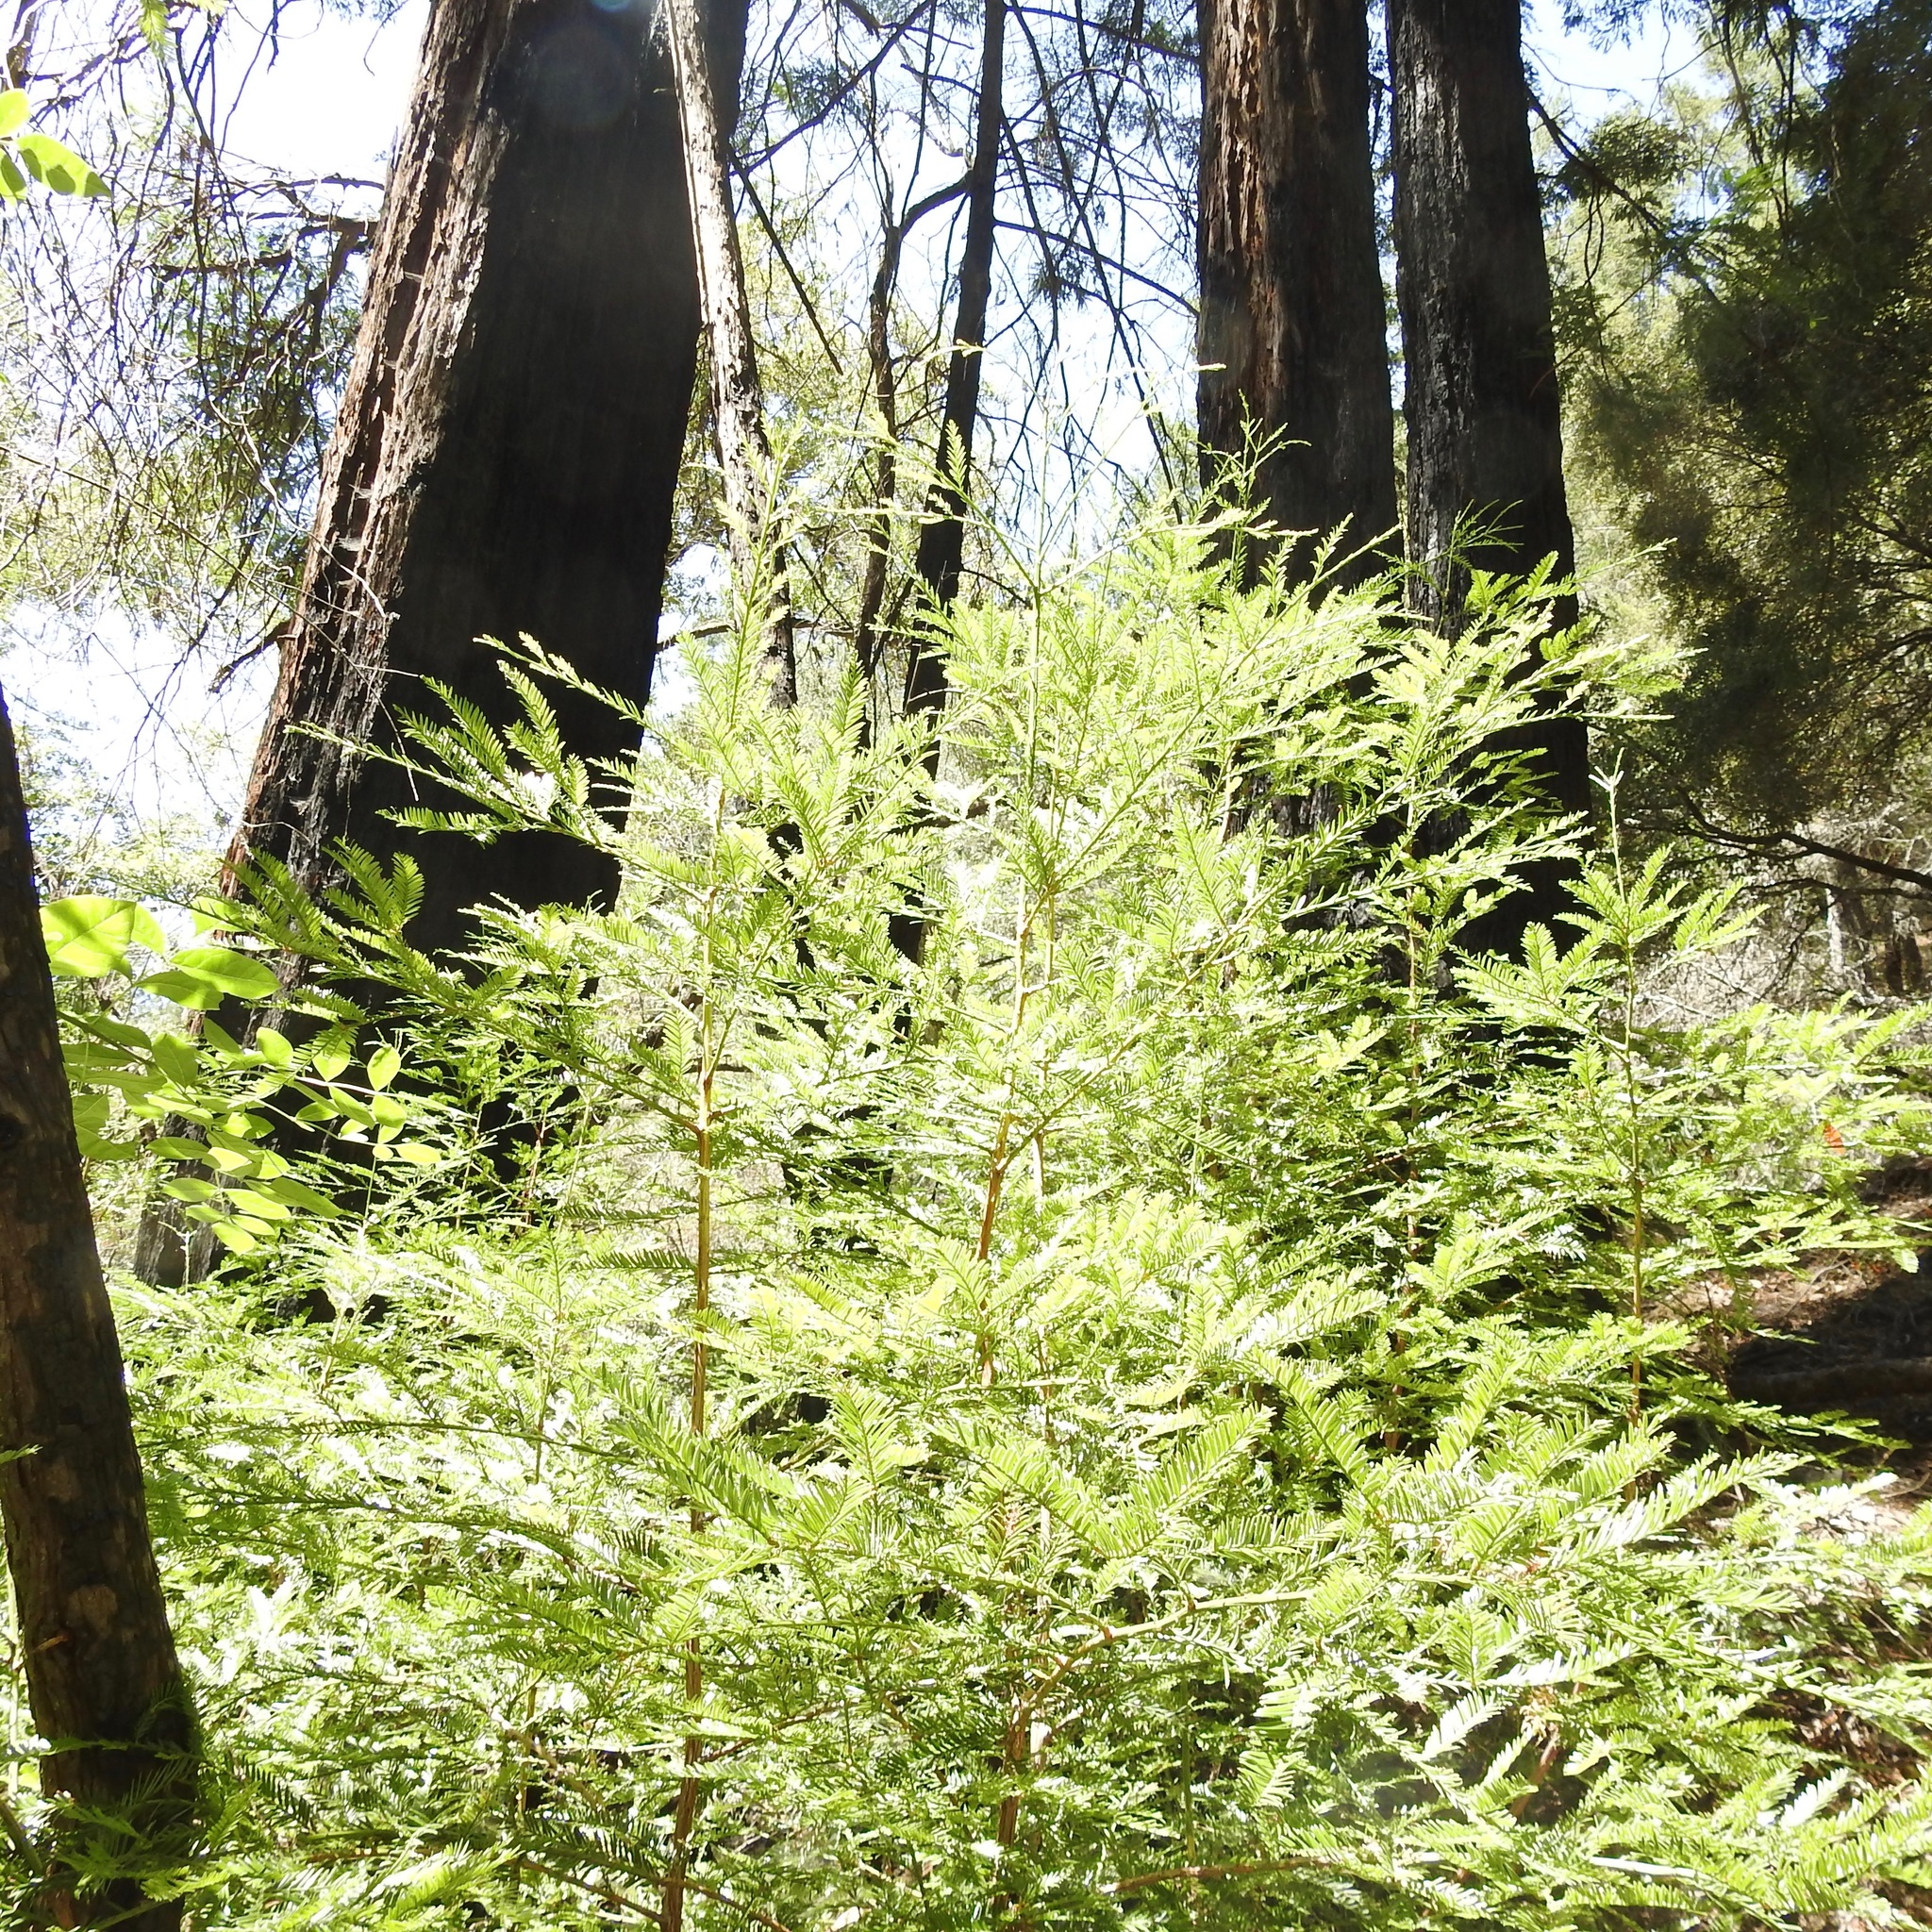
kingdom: Plantae
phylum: Tracheophyta
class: Pinopsida
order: Pinales
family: Cupressaceae
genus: Sequoia
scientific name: Sequoia sempervirens
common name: Coast redwood
